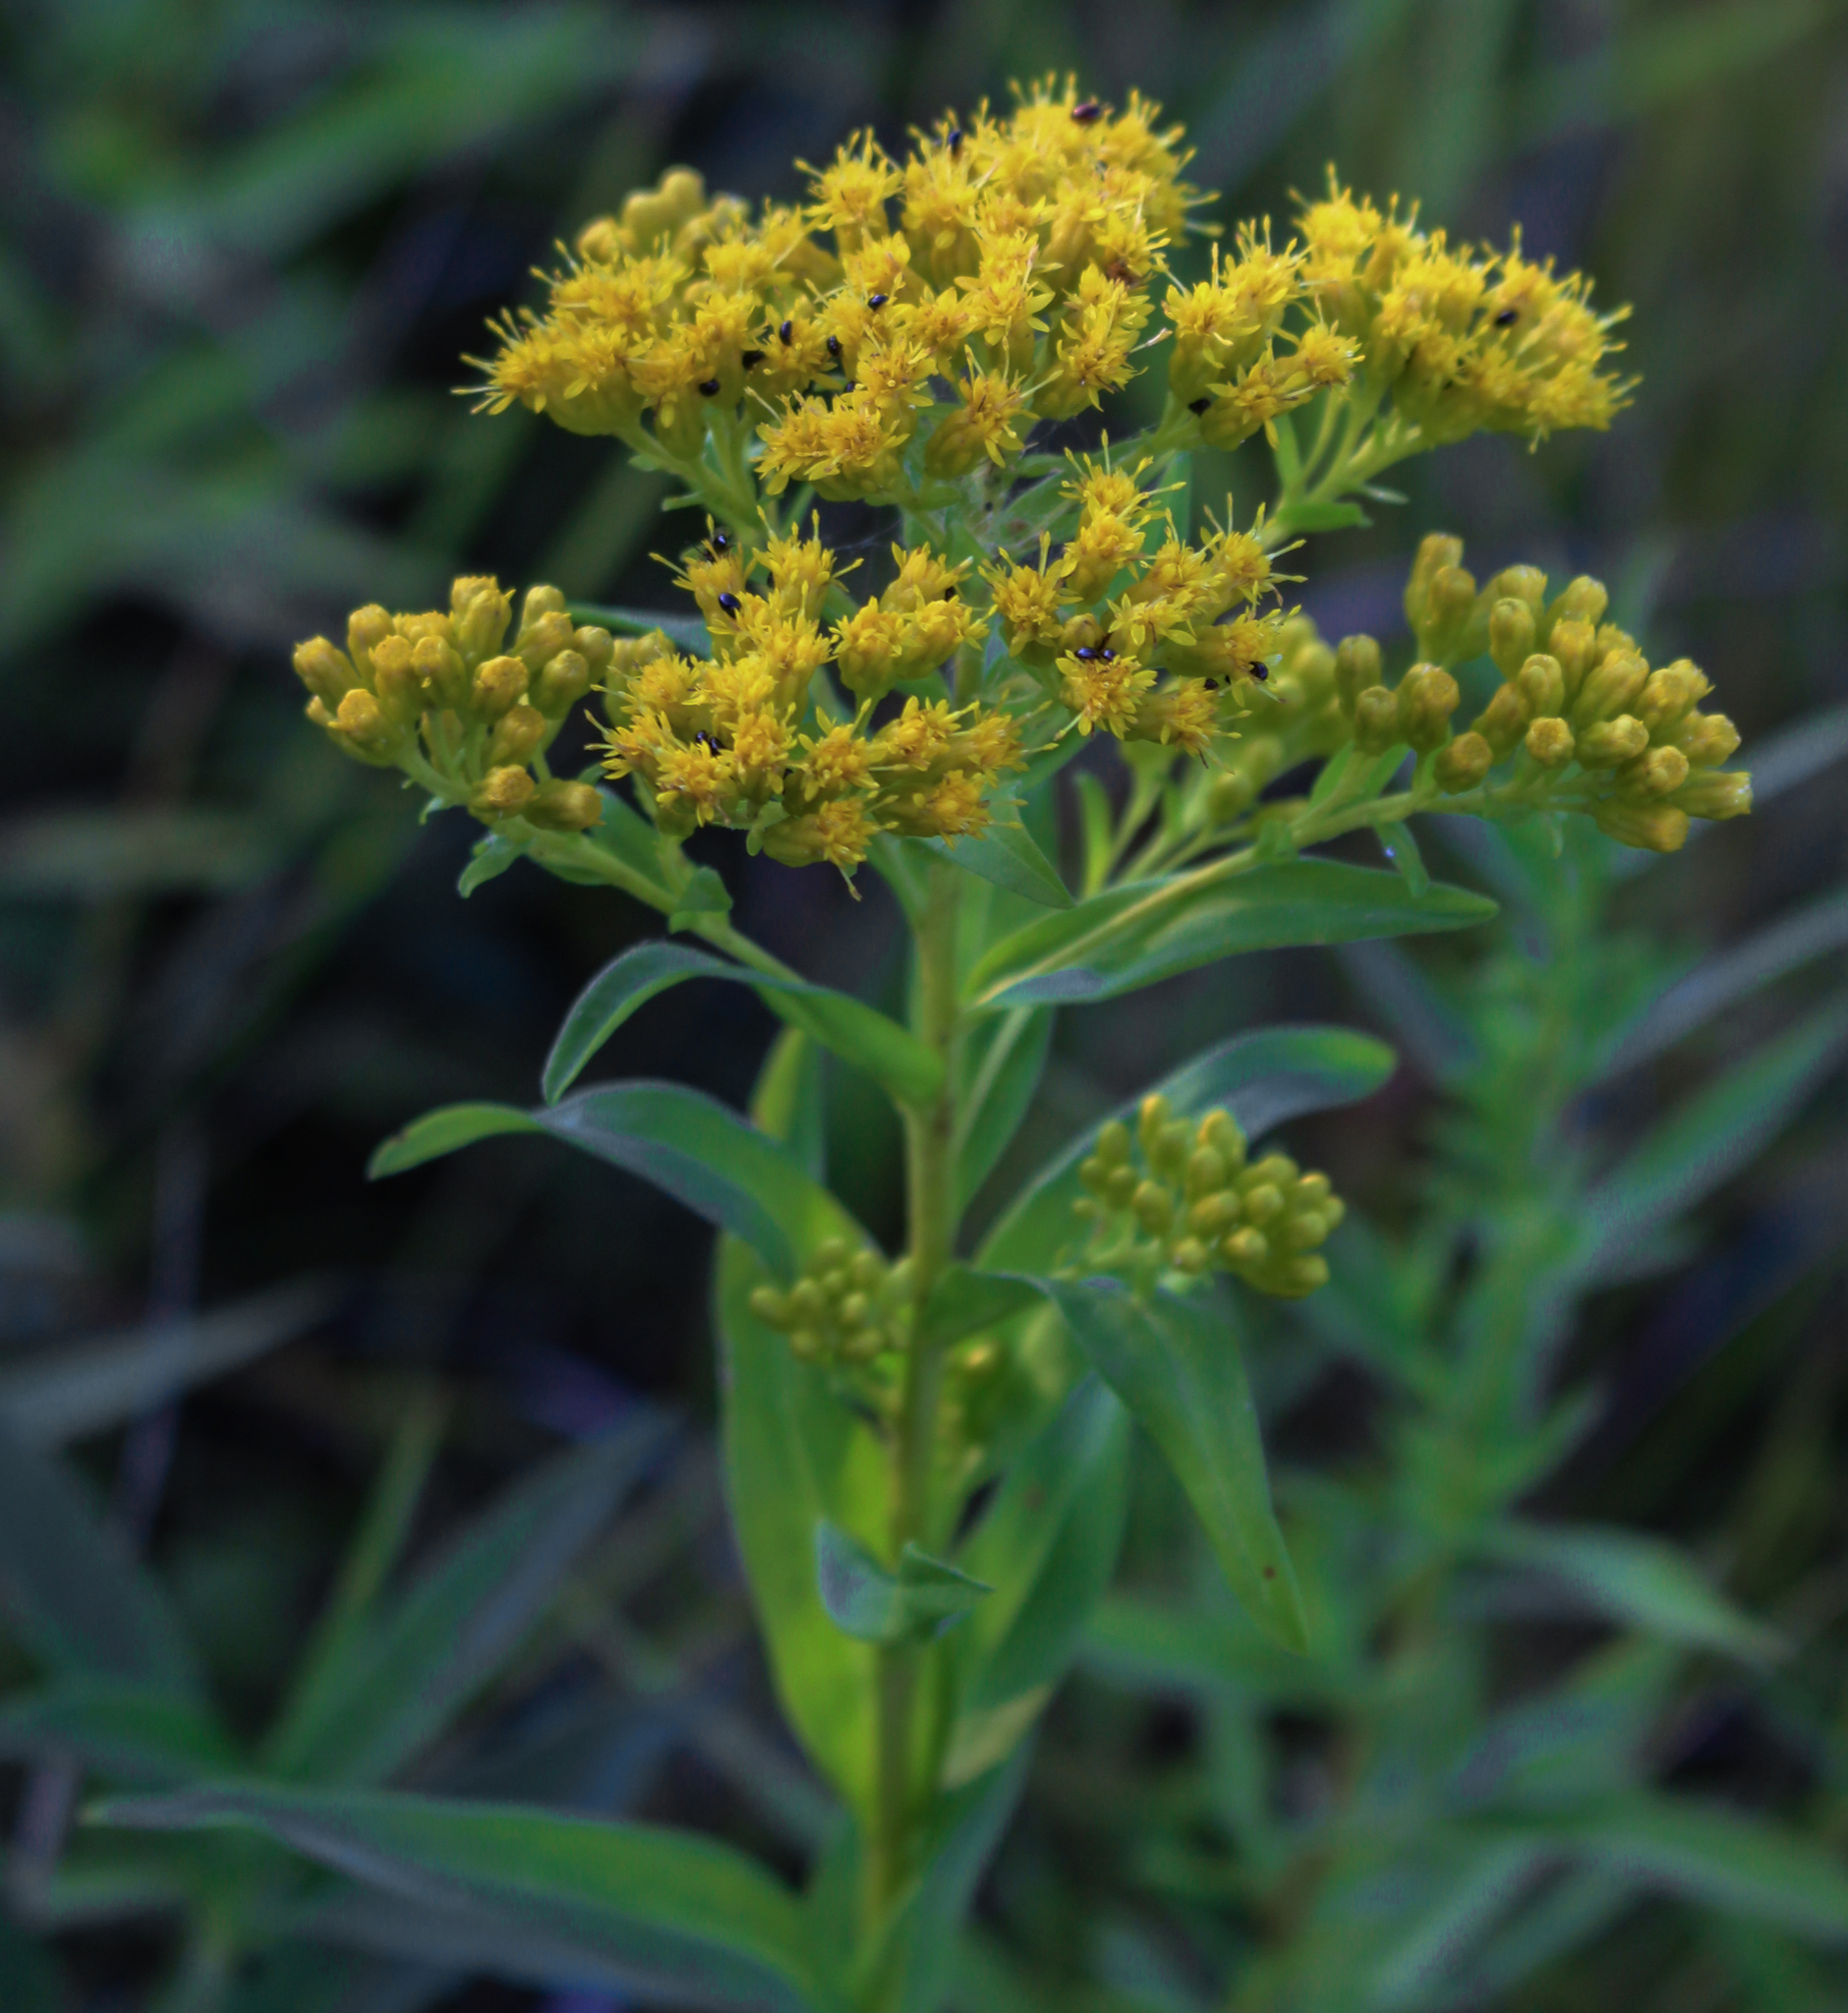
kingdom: Plantae
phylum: Tracheophyta
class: Magnoliopsida
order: Asterales
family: Asteraceae
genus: Solidago
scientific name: Solidago riddellii
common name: Riddell's goldenrod
